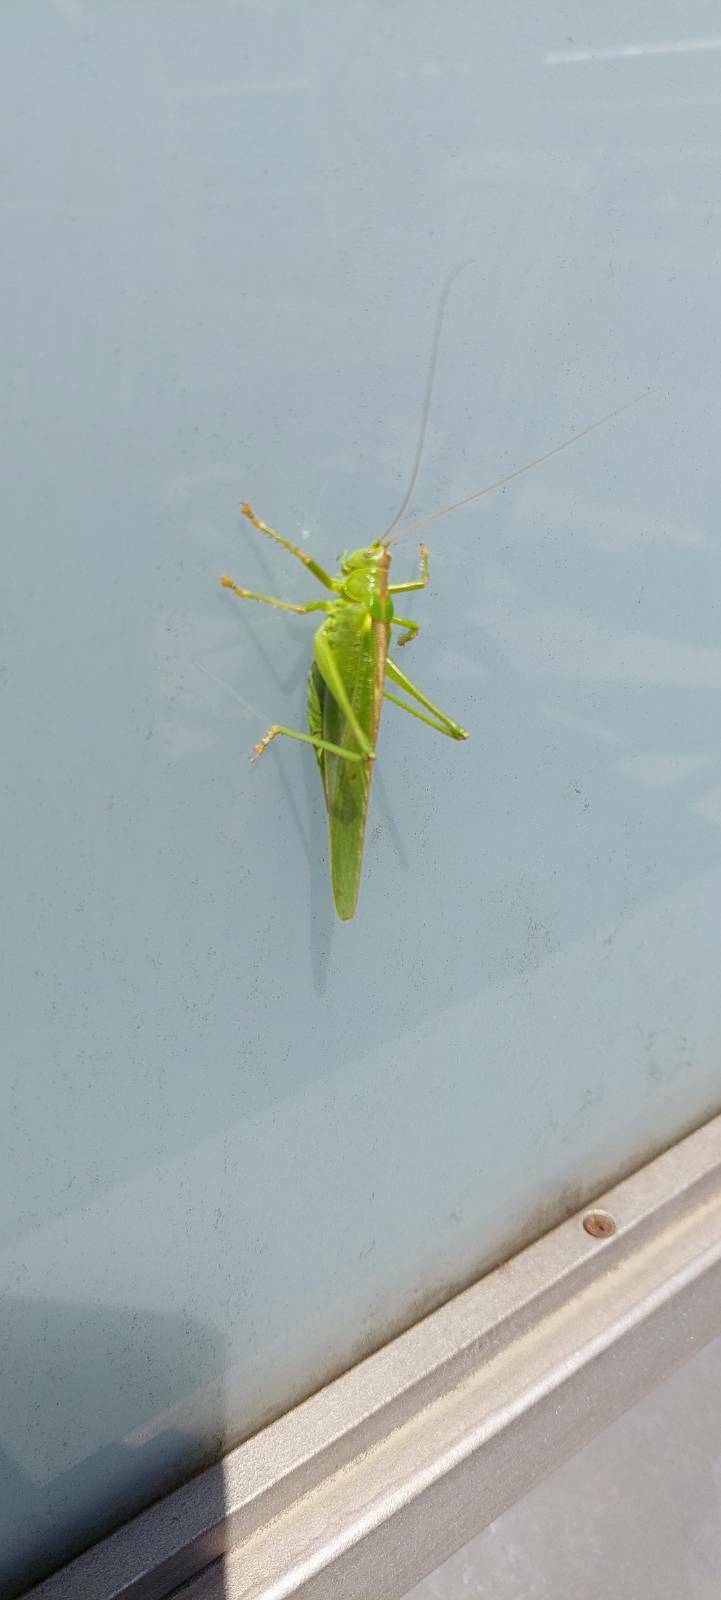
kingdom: Animalia
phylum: Arthropoda
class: Insecta
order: Orthoptera
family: Tettigoniidae
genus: Tettigonia
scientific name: Tettigonia viridissima
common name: Great green bush-cricket
